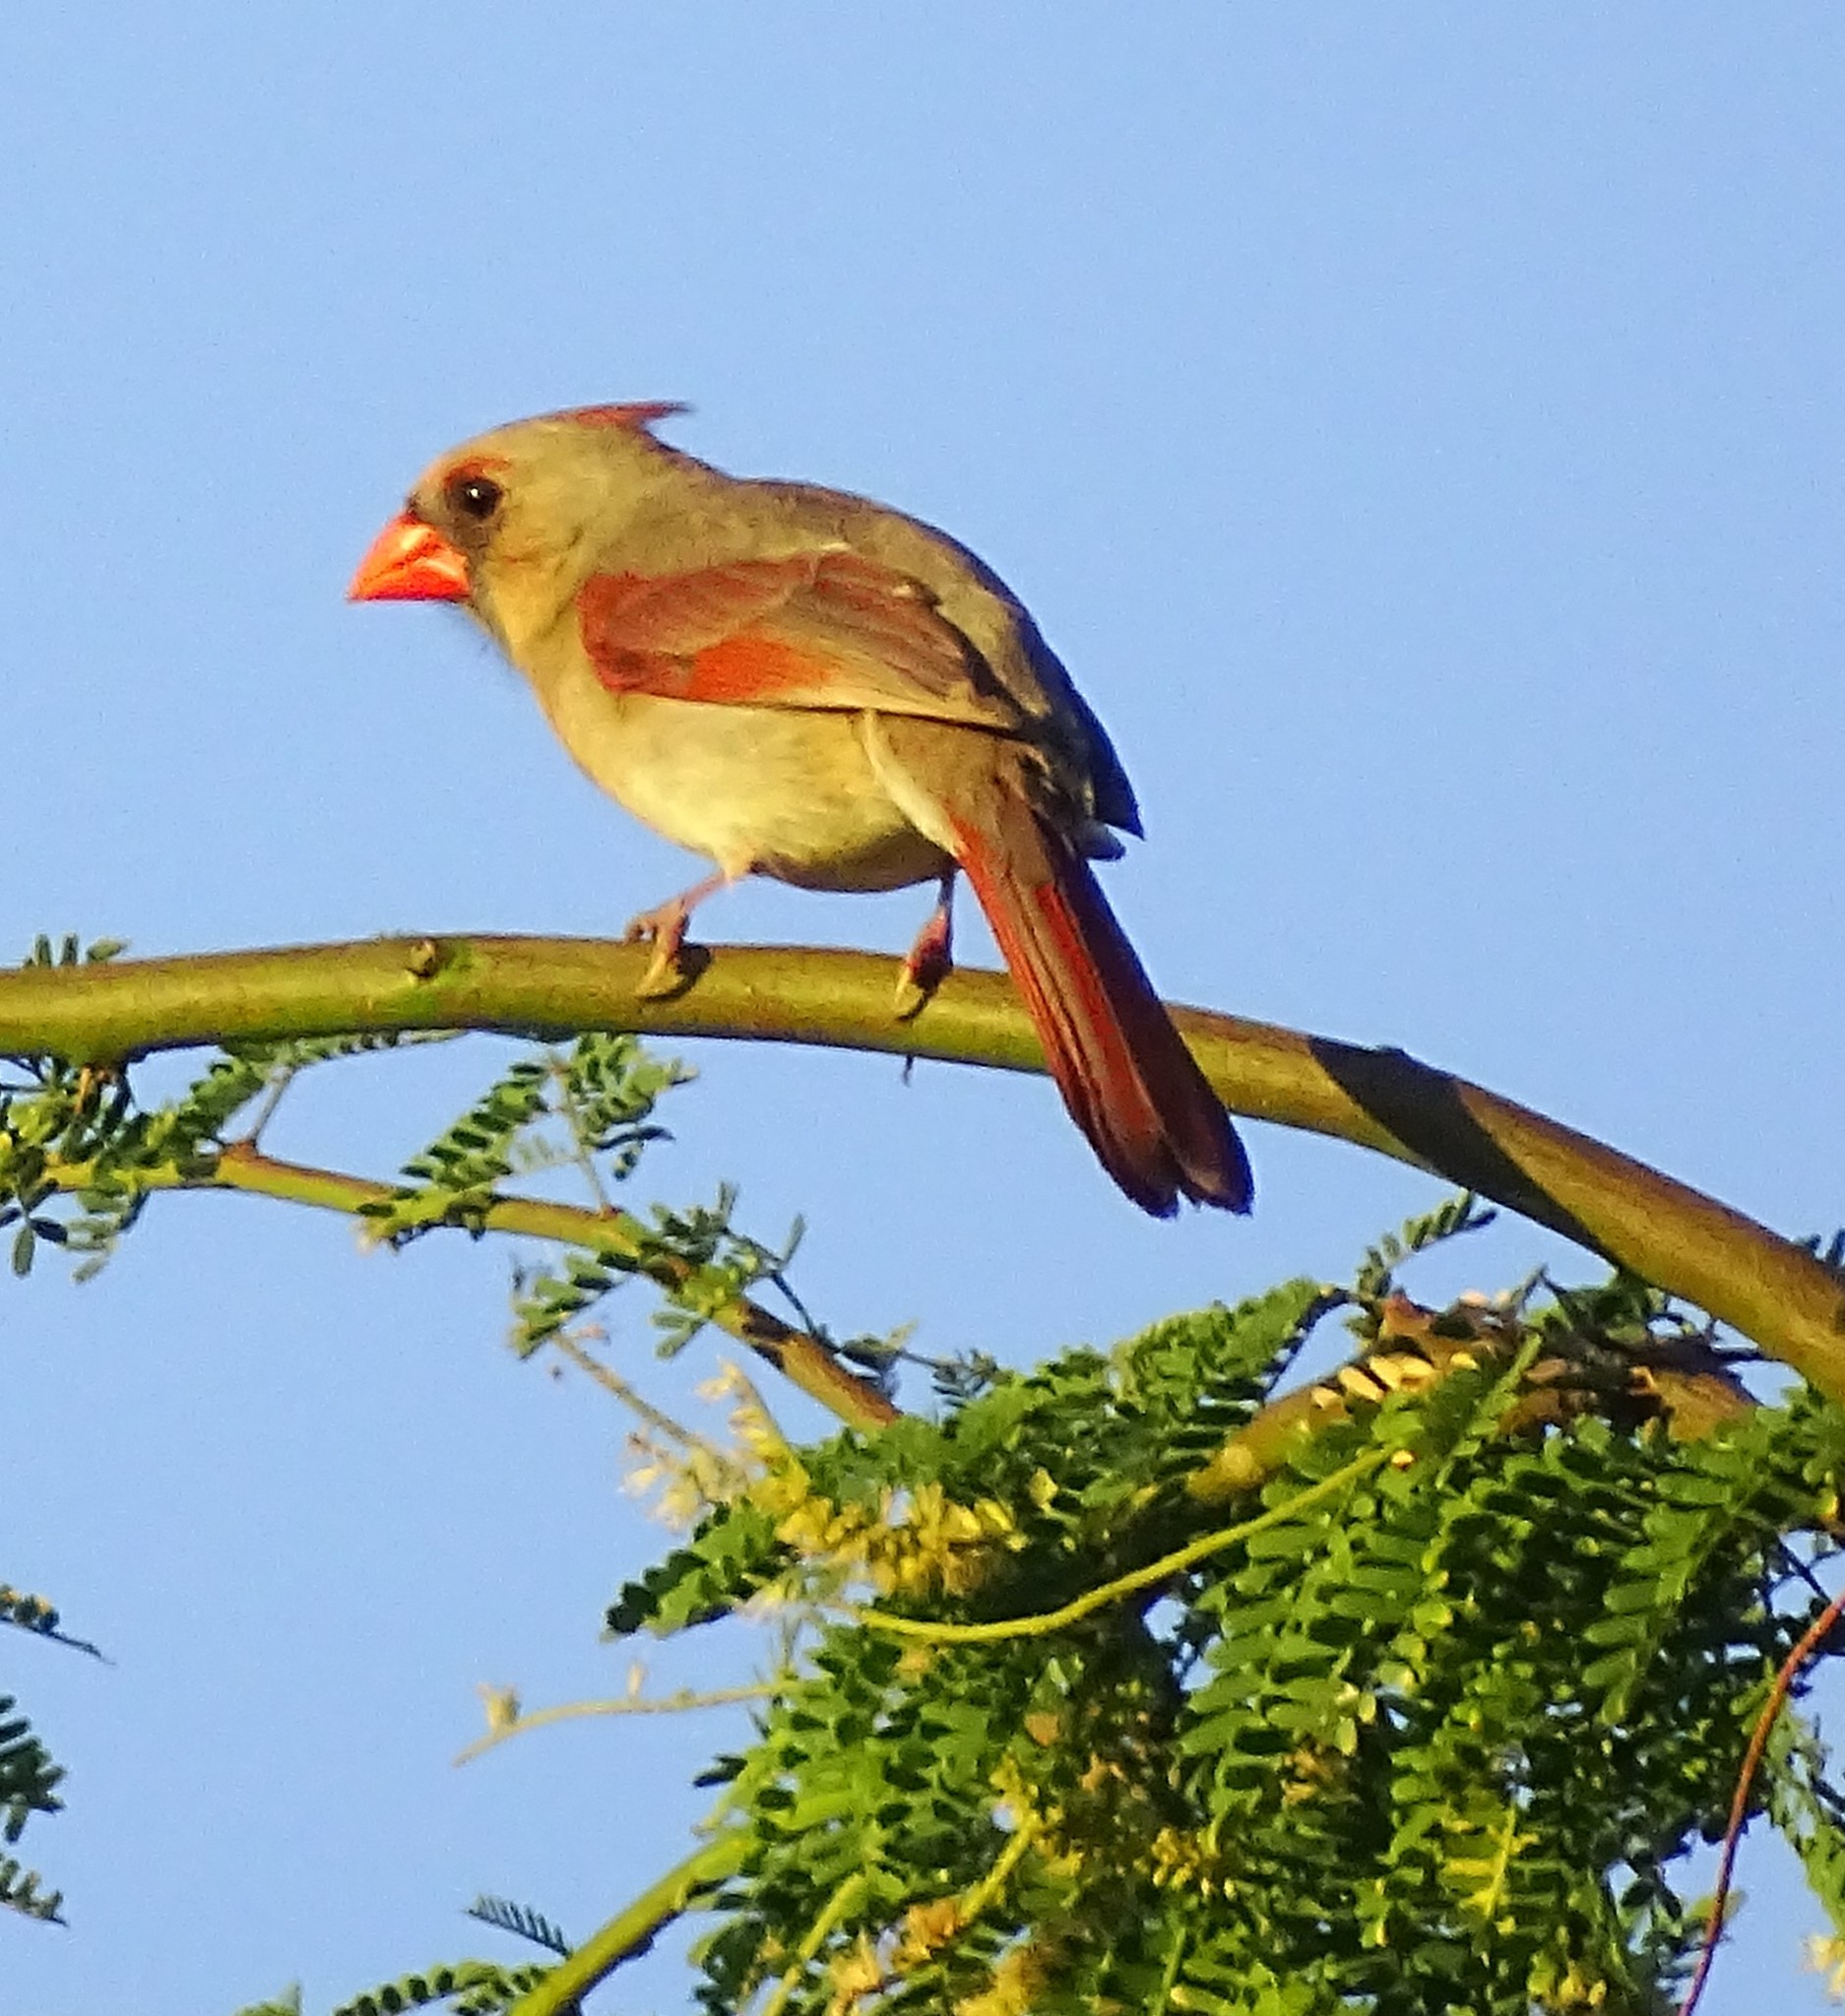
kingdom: Animalia
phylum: Chordata
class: Aves
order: Passeriformes
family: Cardinalidae
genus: Cardinalis
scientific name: Cardinalis cardinalis
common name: Northern cardinal
